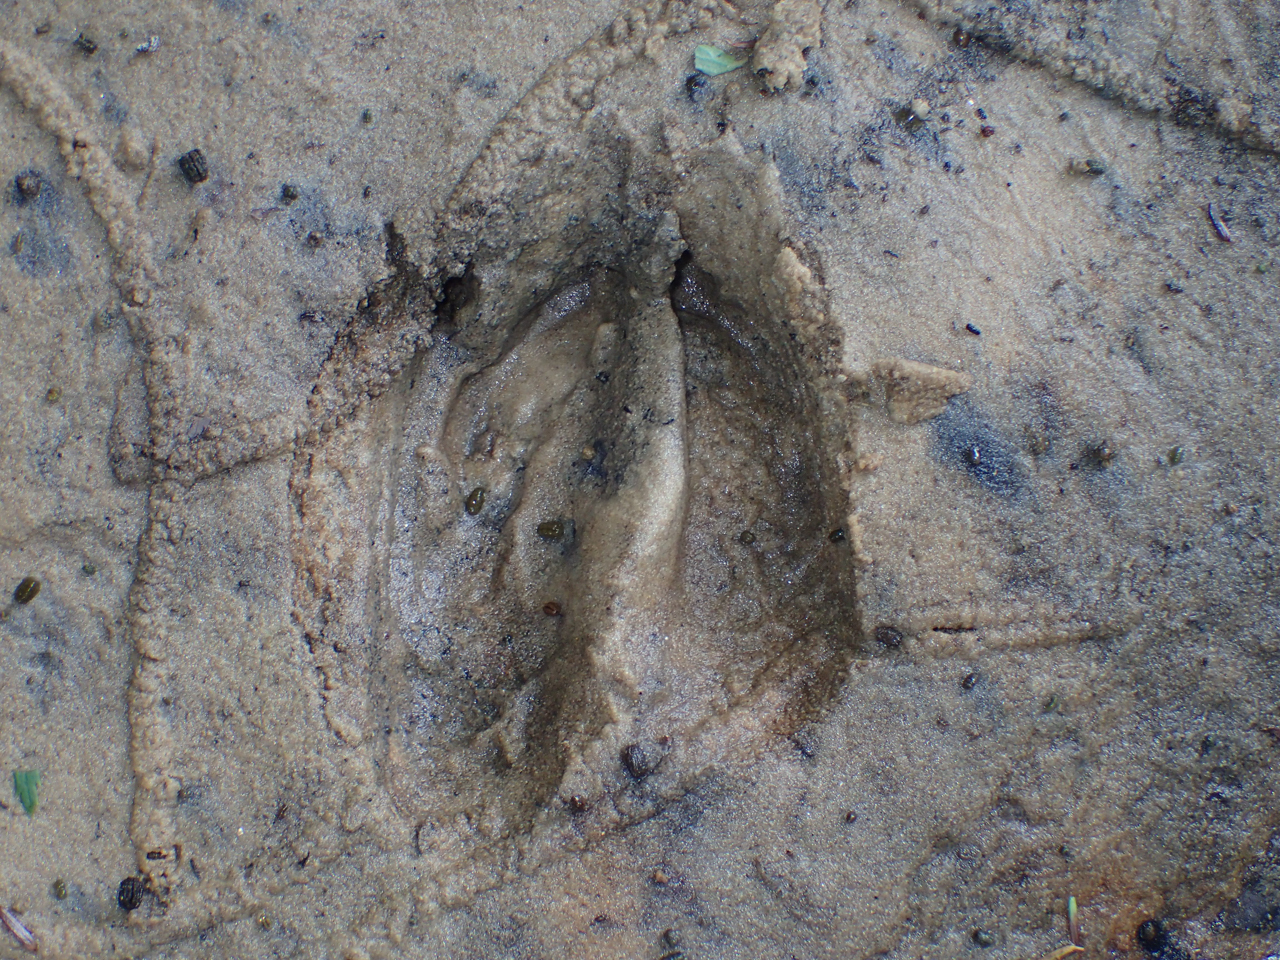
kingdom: Animalia
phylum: Chordata
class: Mammalia
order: Artiodactyla
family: Cervidae
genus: Odocoileus
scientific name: Odocoileus virginianus
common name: White-tailed deer
